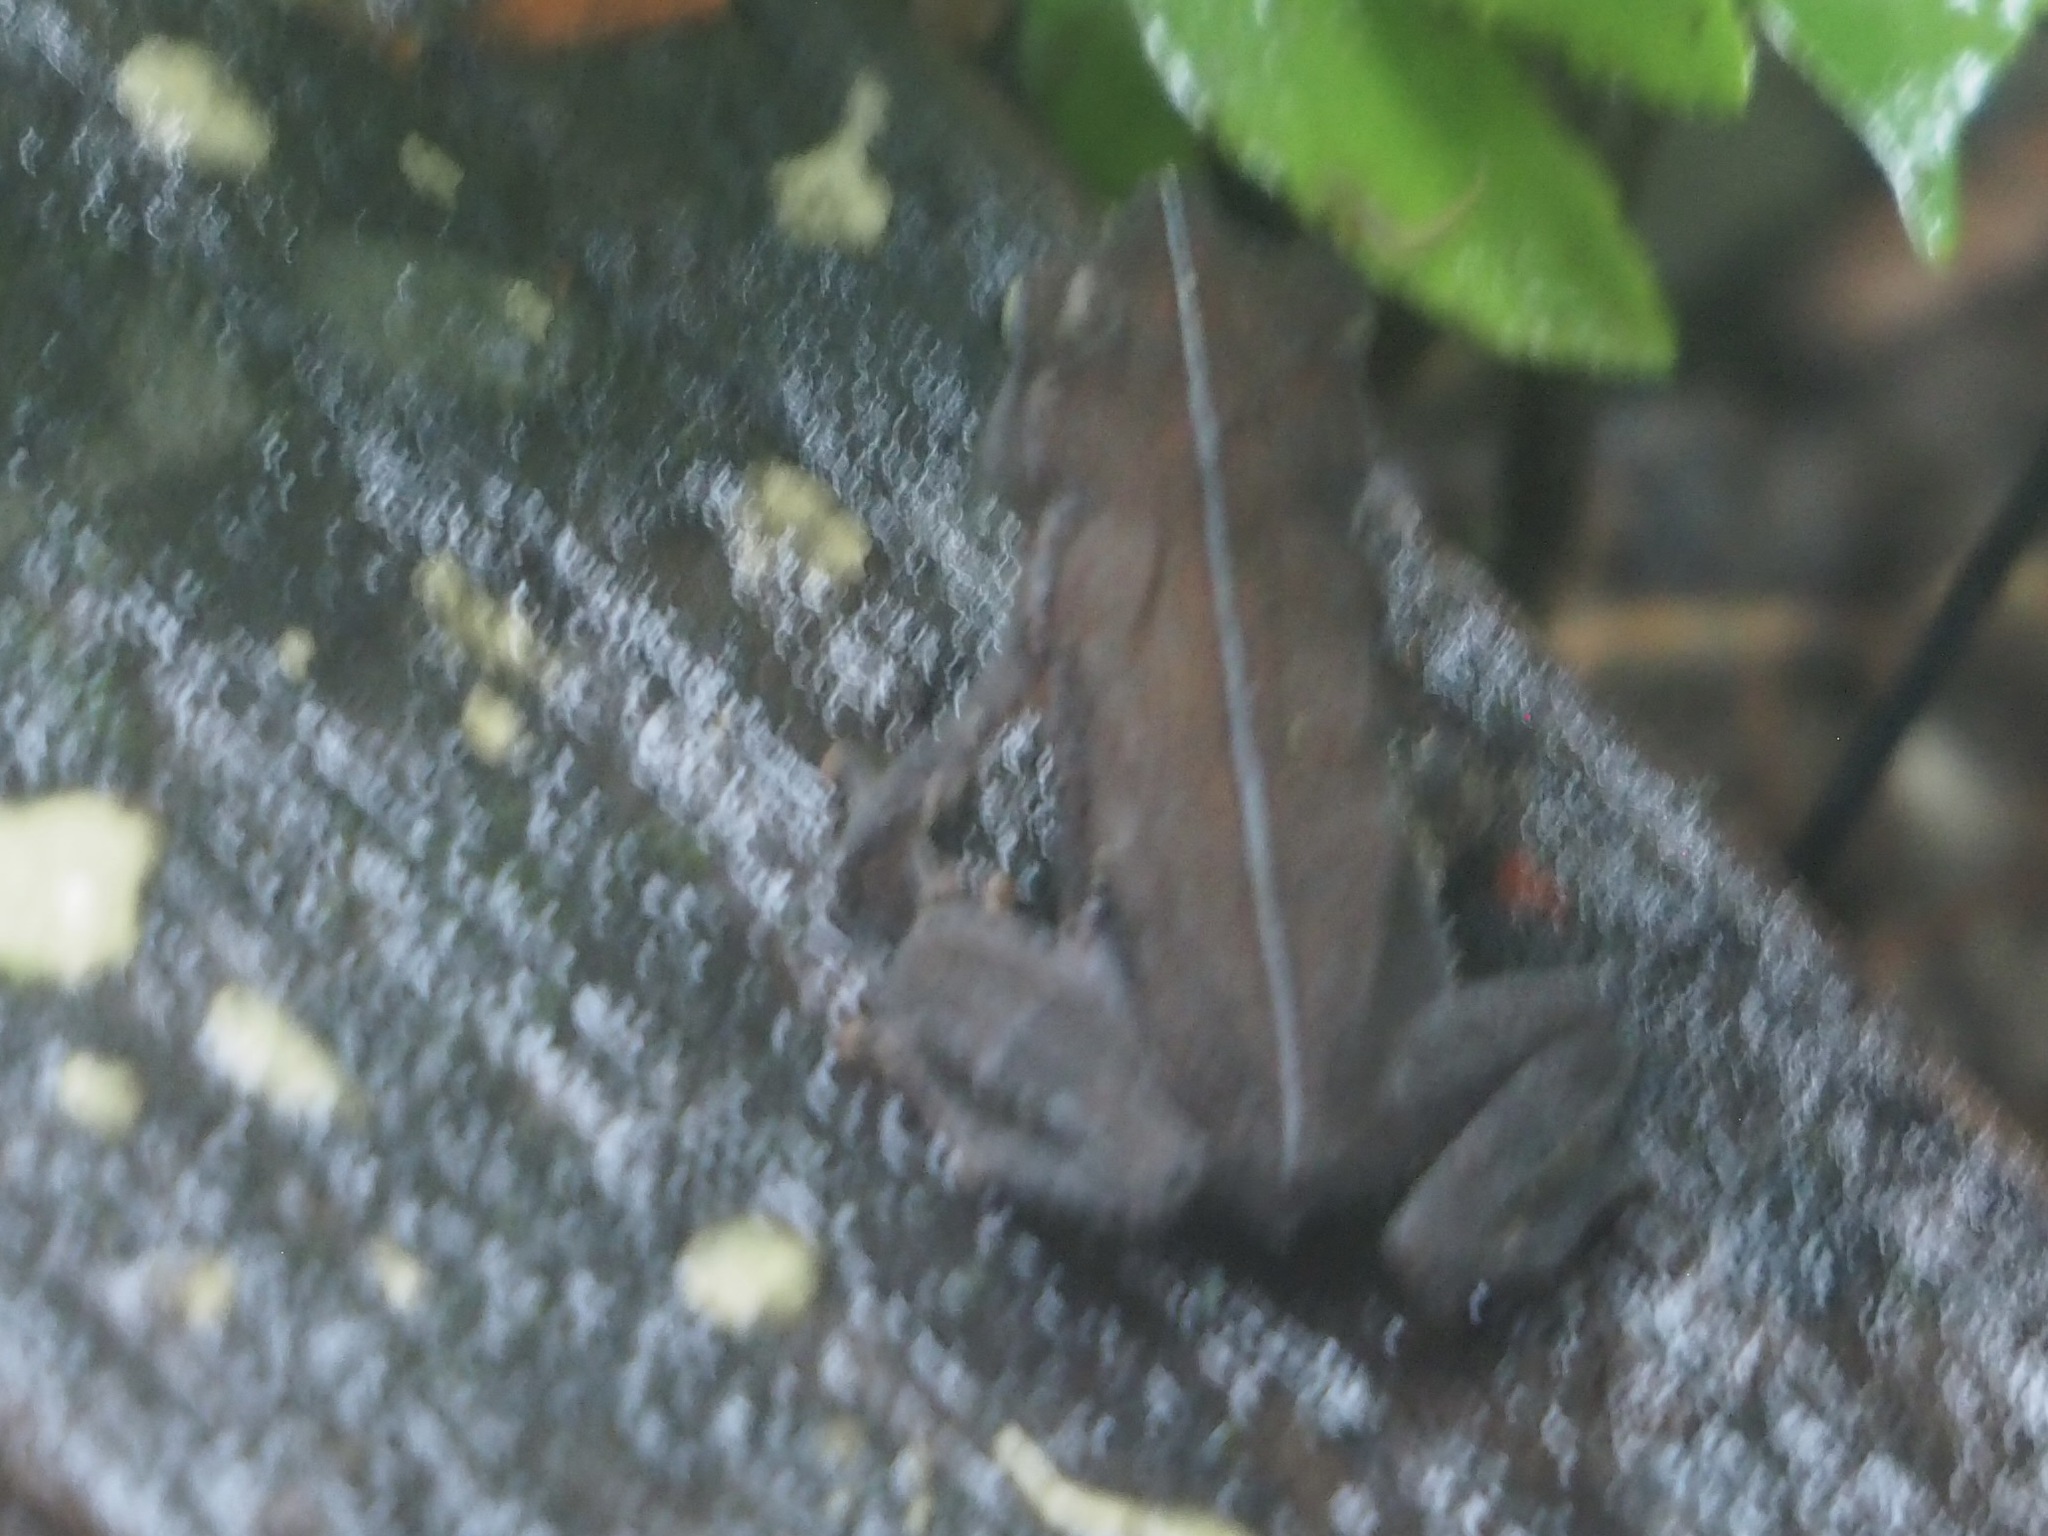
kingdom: Animalia
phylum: Chordata
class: Amphibia
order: Anura
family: Bufonidae
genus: Rhinella
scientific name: Rhinella alata
